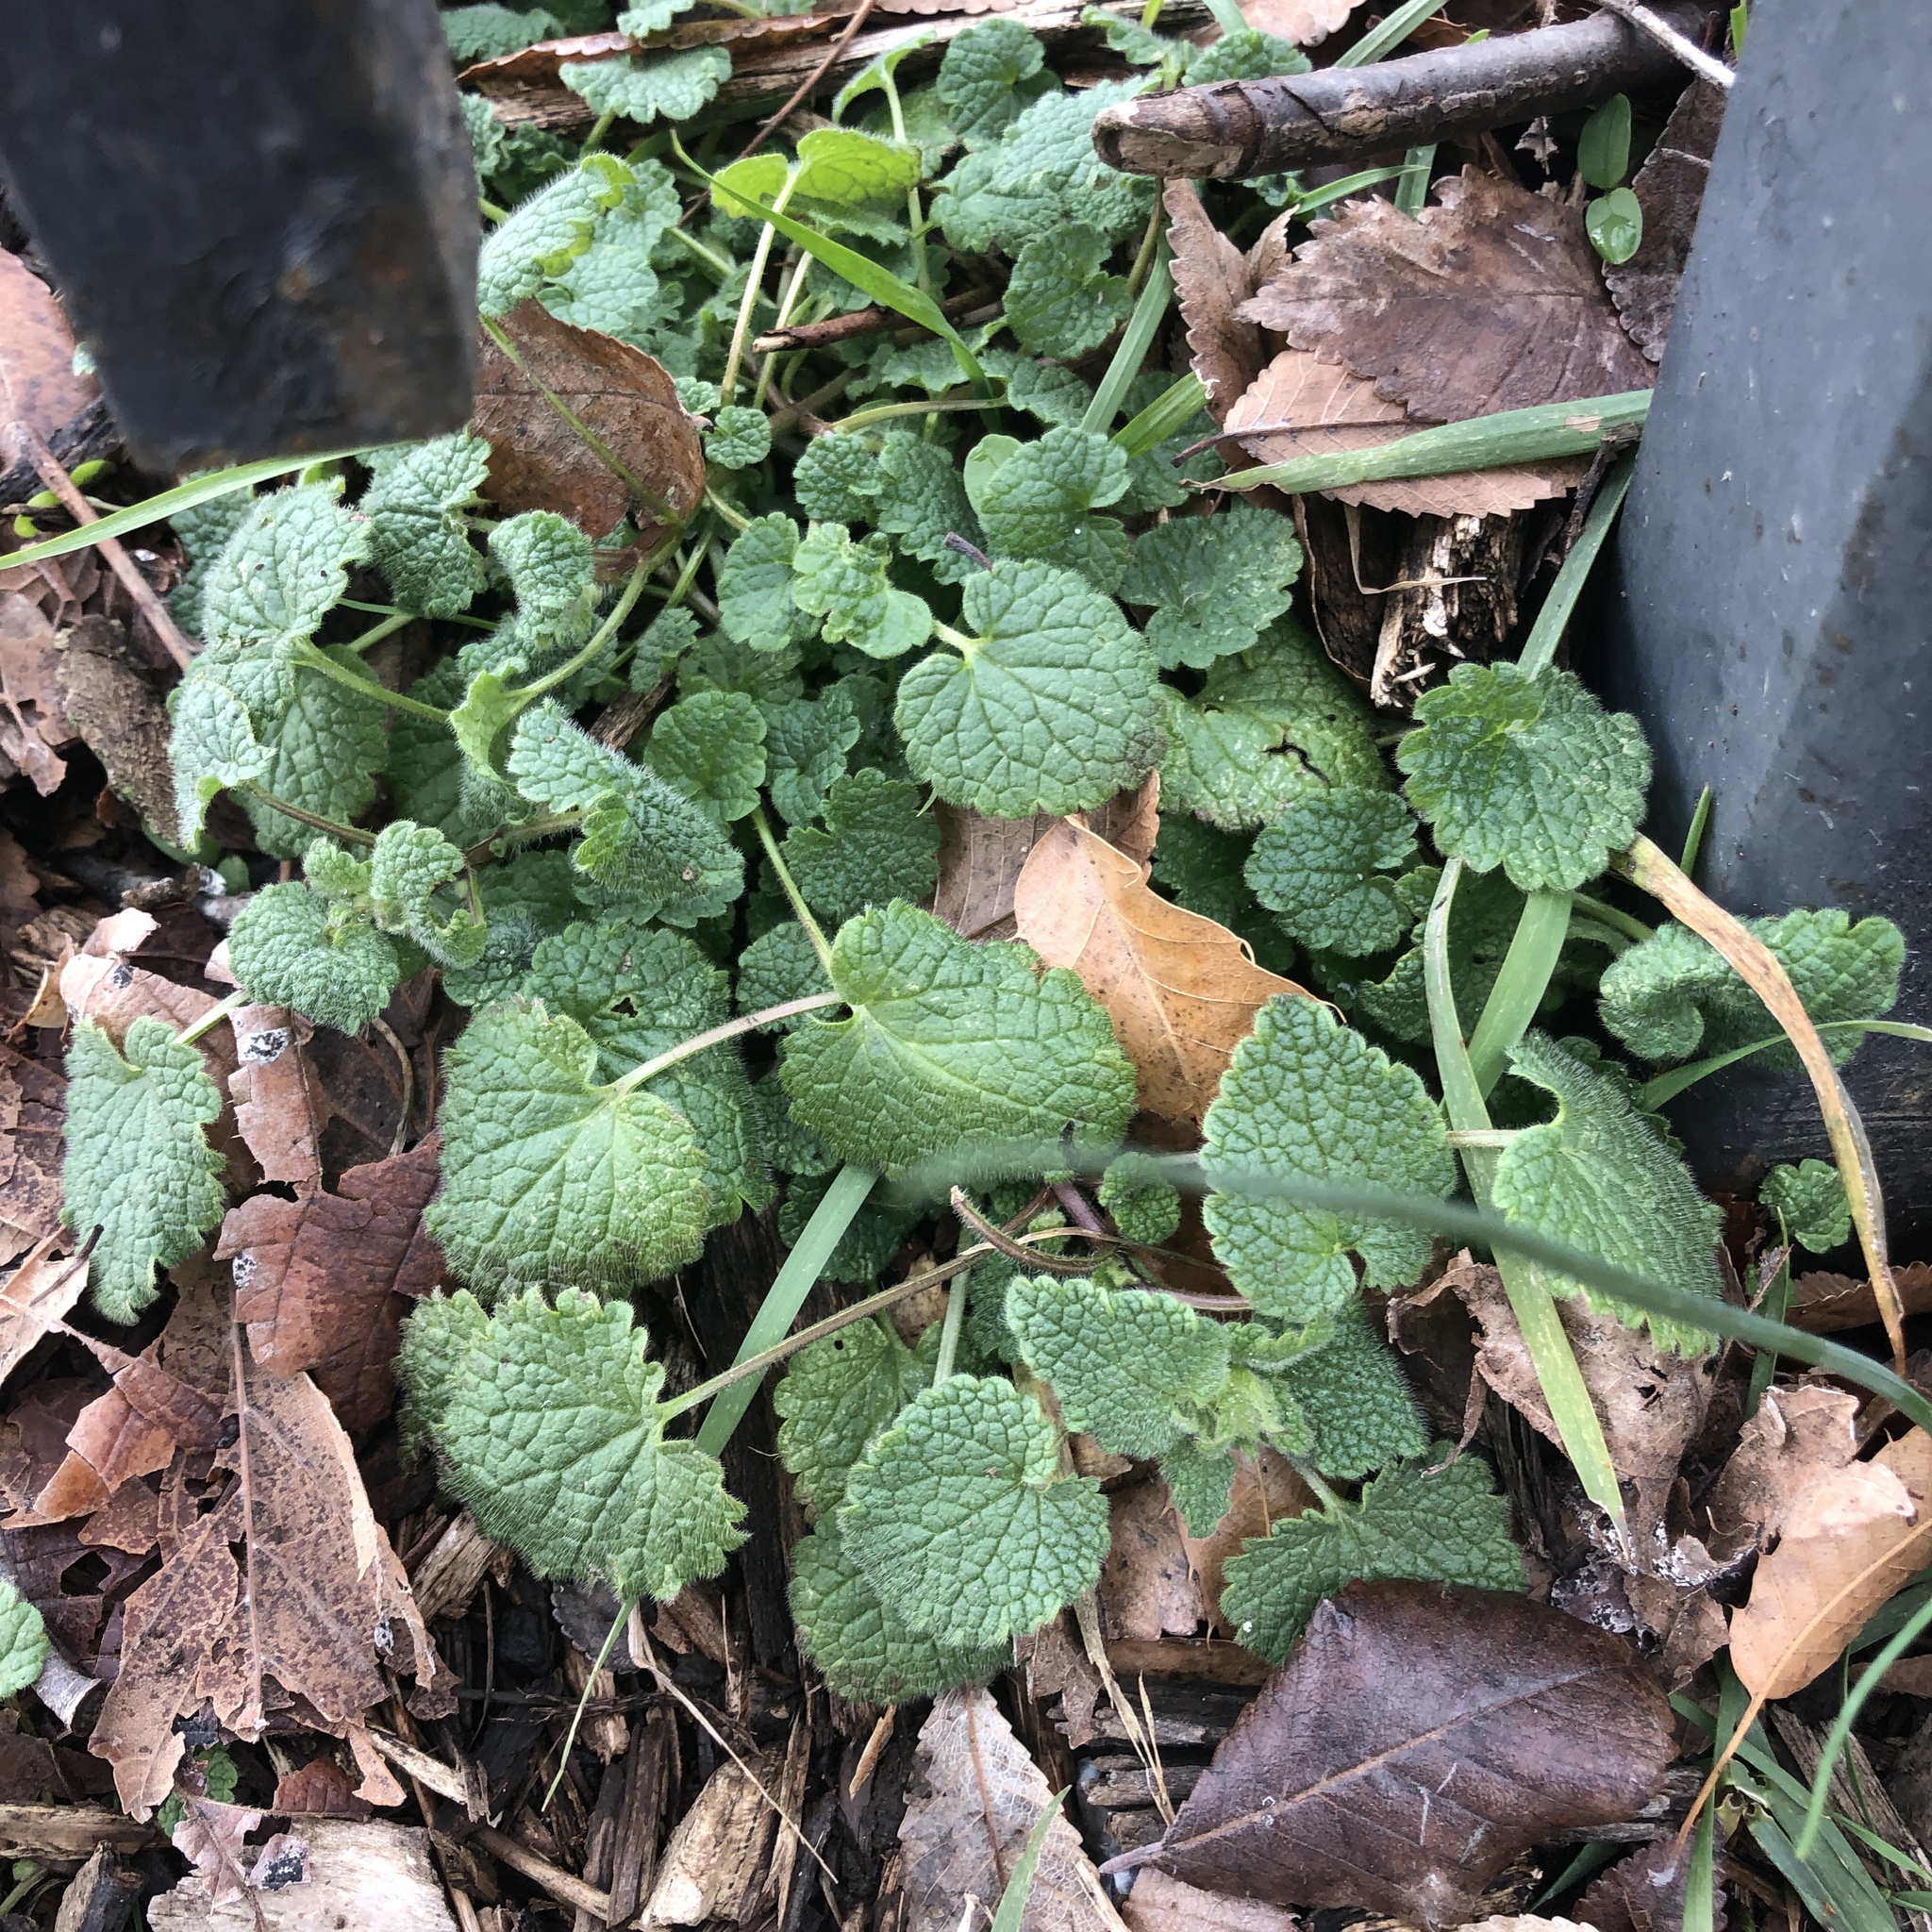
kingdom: Plantae
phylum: Tracheophyta
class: Magnoliopsida
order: Lamiales
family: Lamiaceae
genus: Lamium
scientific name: Lamium purpureum
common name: Red dead-nettle
